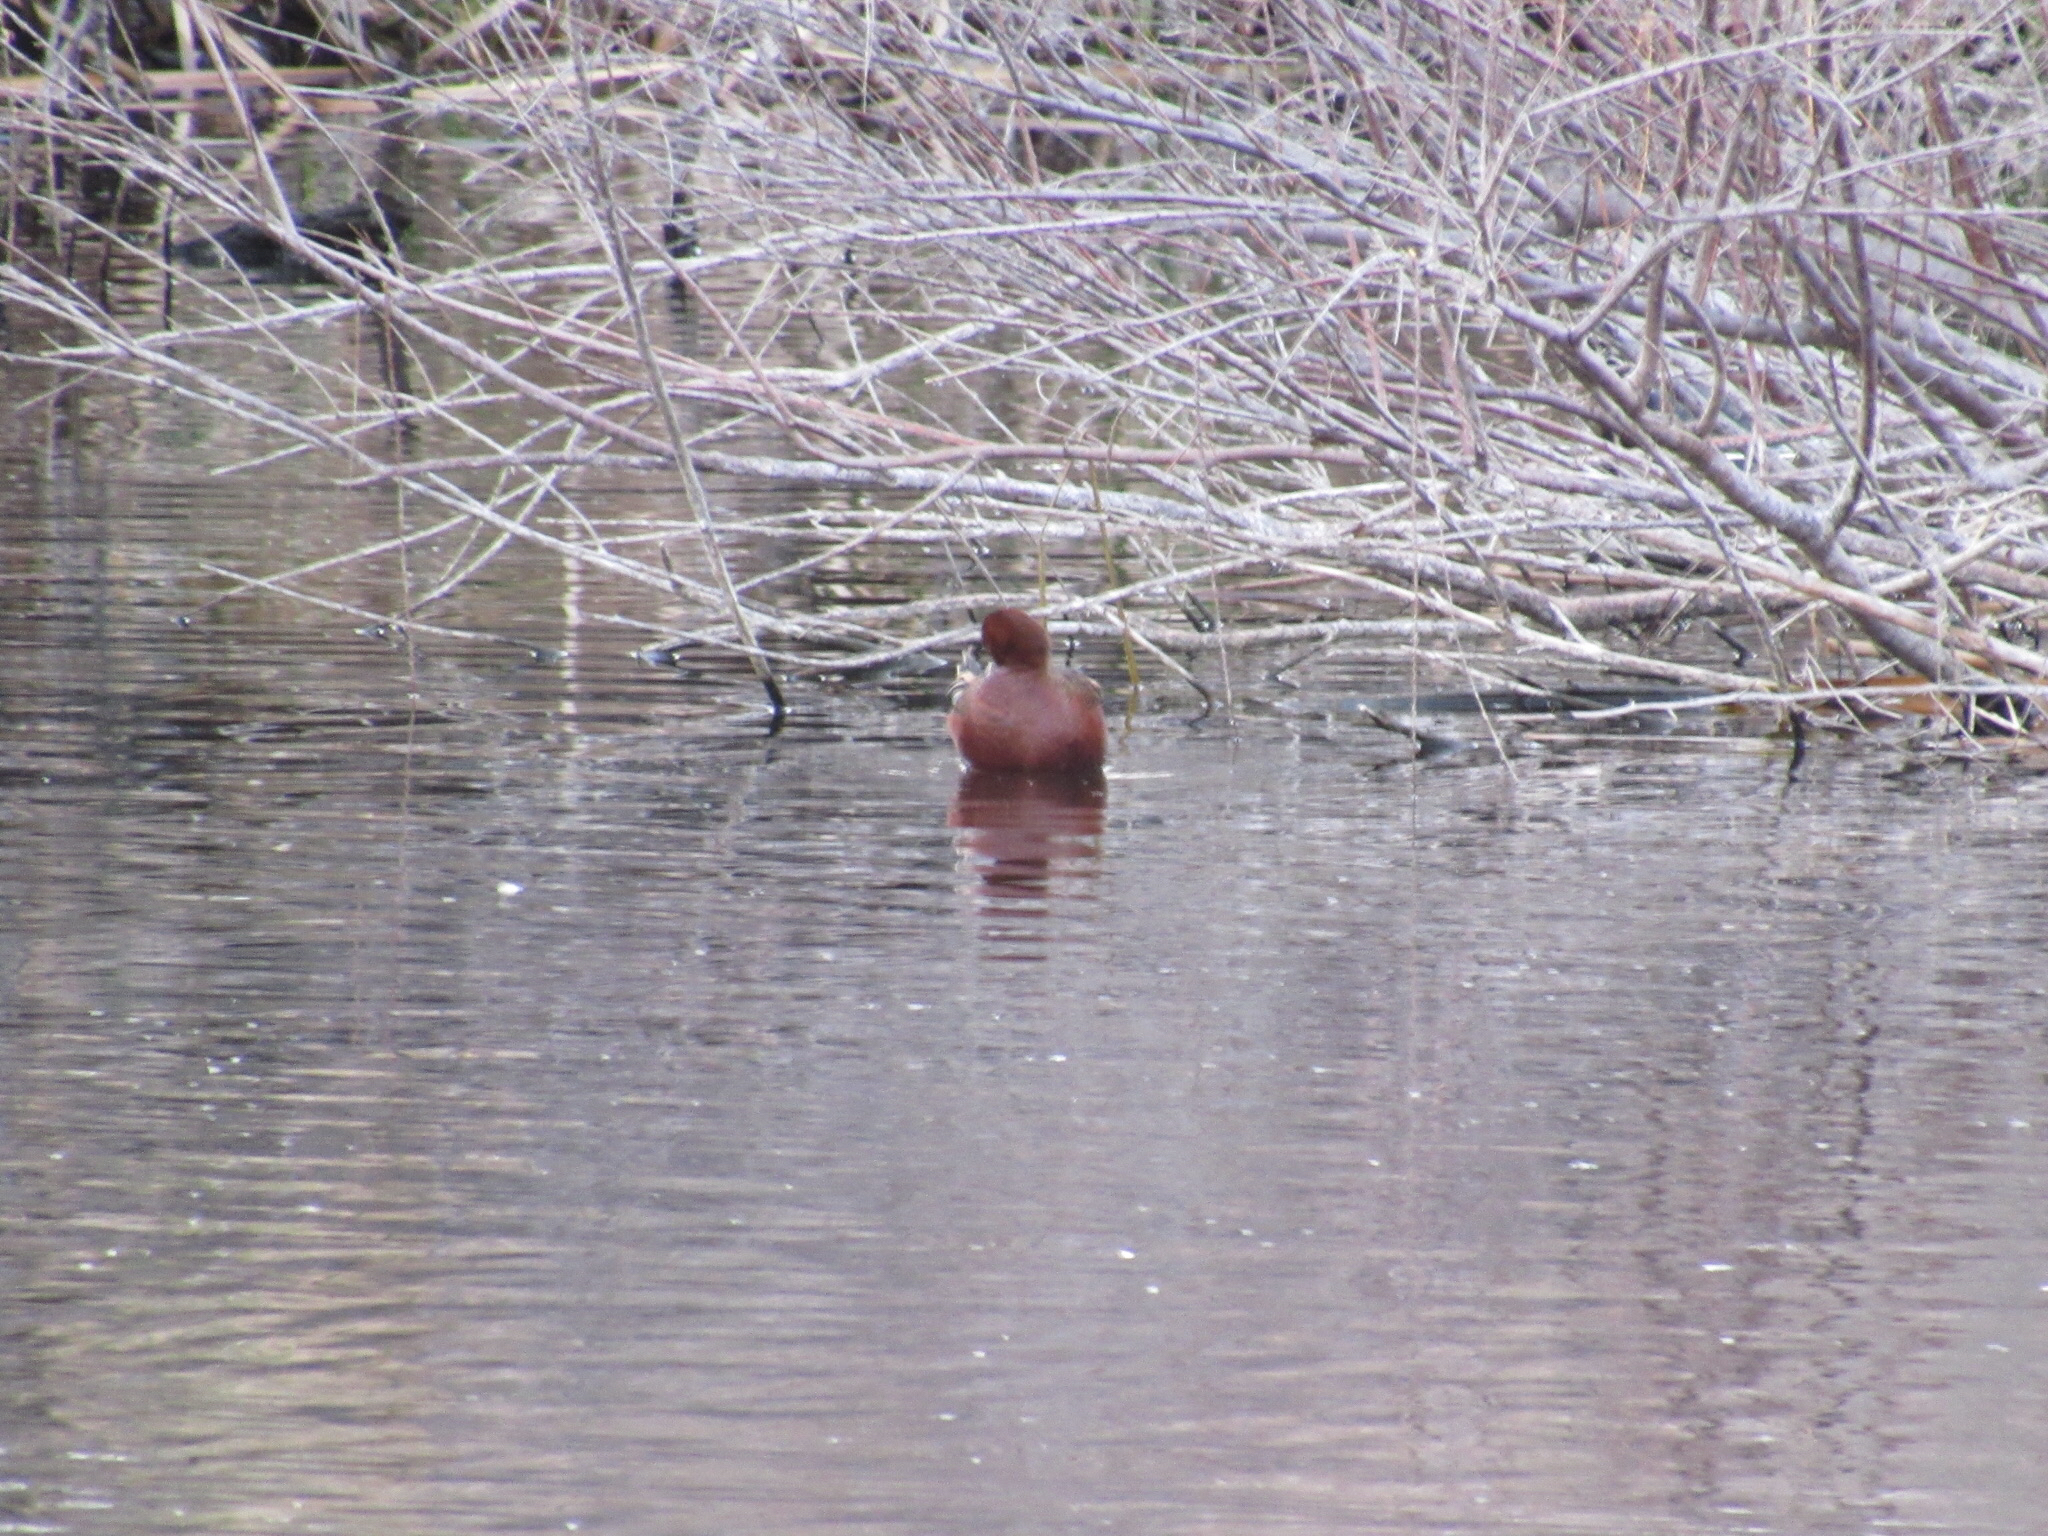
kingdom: Animalia
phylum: Chordata
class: Aves
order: Anseriformes
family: Anatidae
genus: Spatula
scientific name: Spatula cyanoptera
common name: Cinnamon teal
